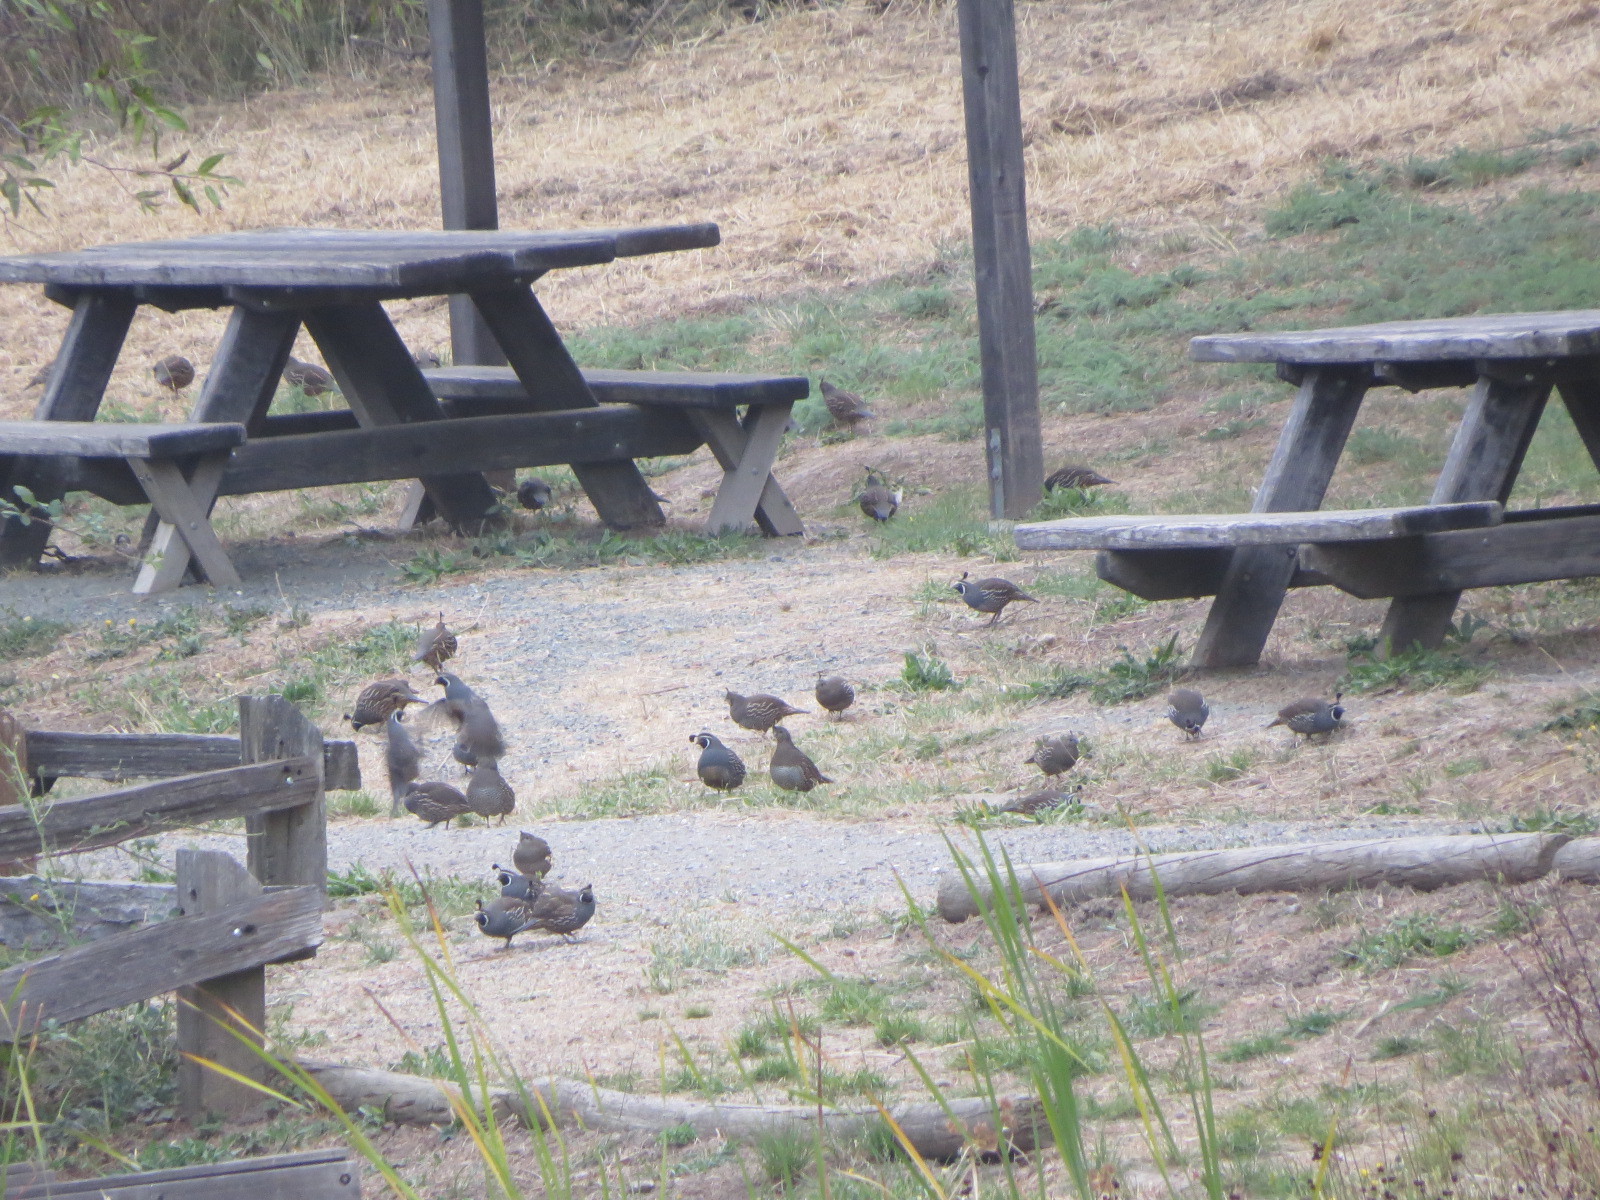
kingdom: Animalia
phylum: Chordata
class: Aves
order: Galliformes
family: Odontophoridae
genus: Callipepla
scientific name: Callipepla californica
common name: California quail
